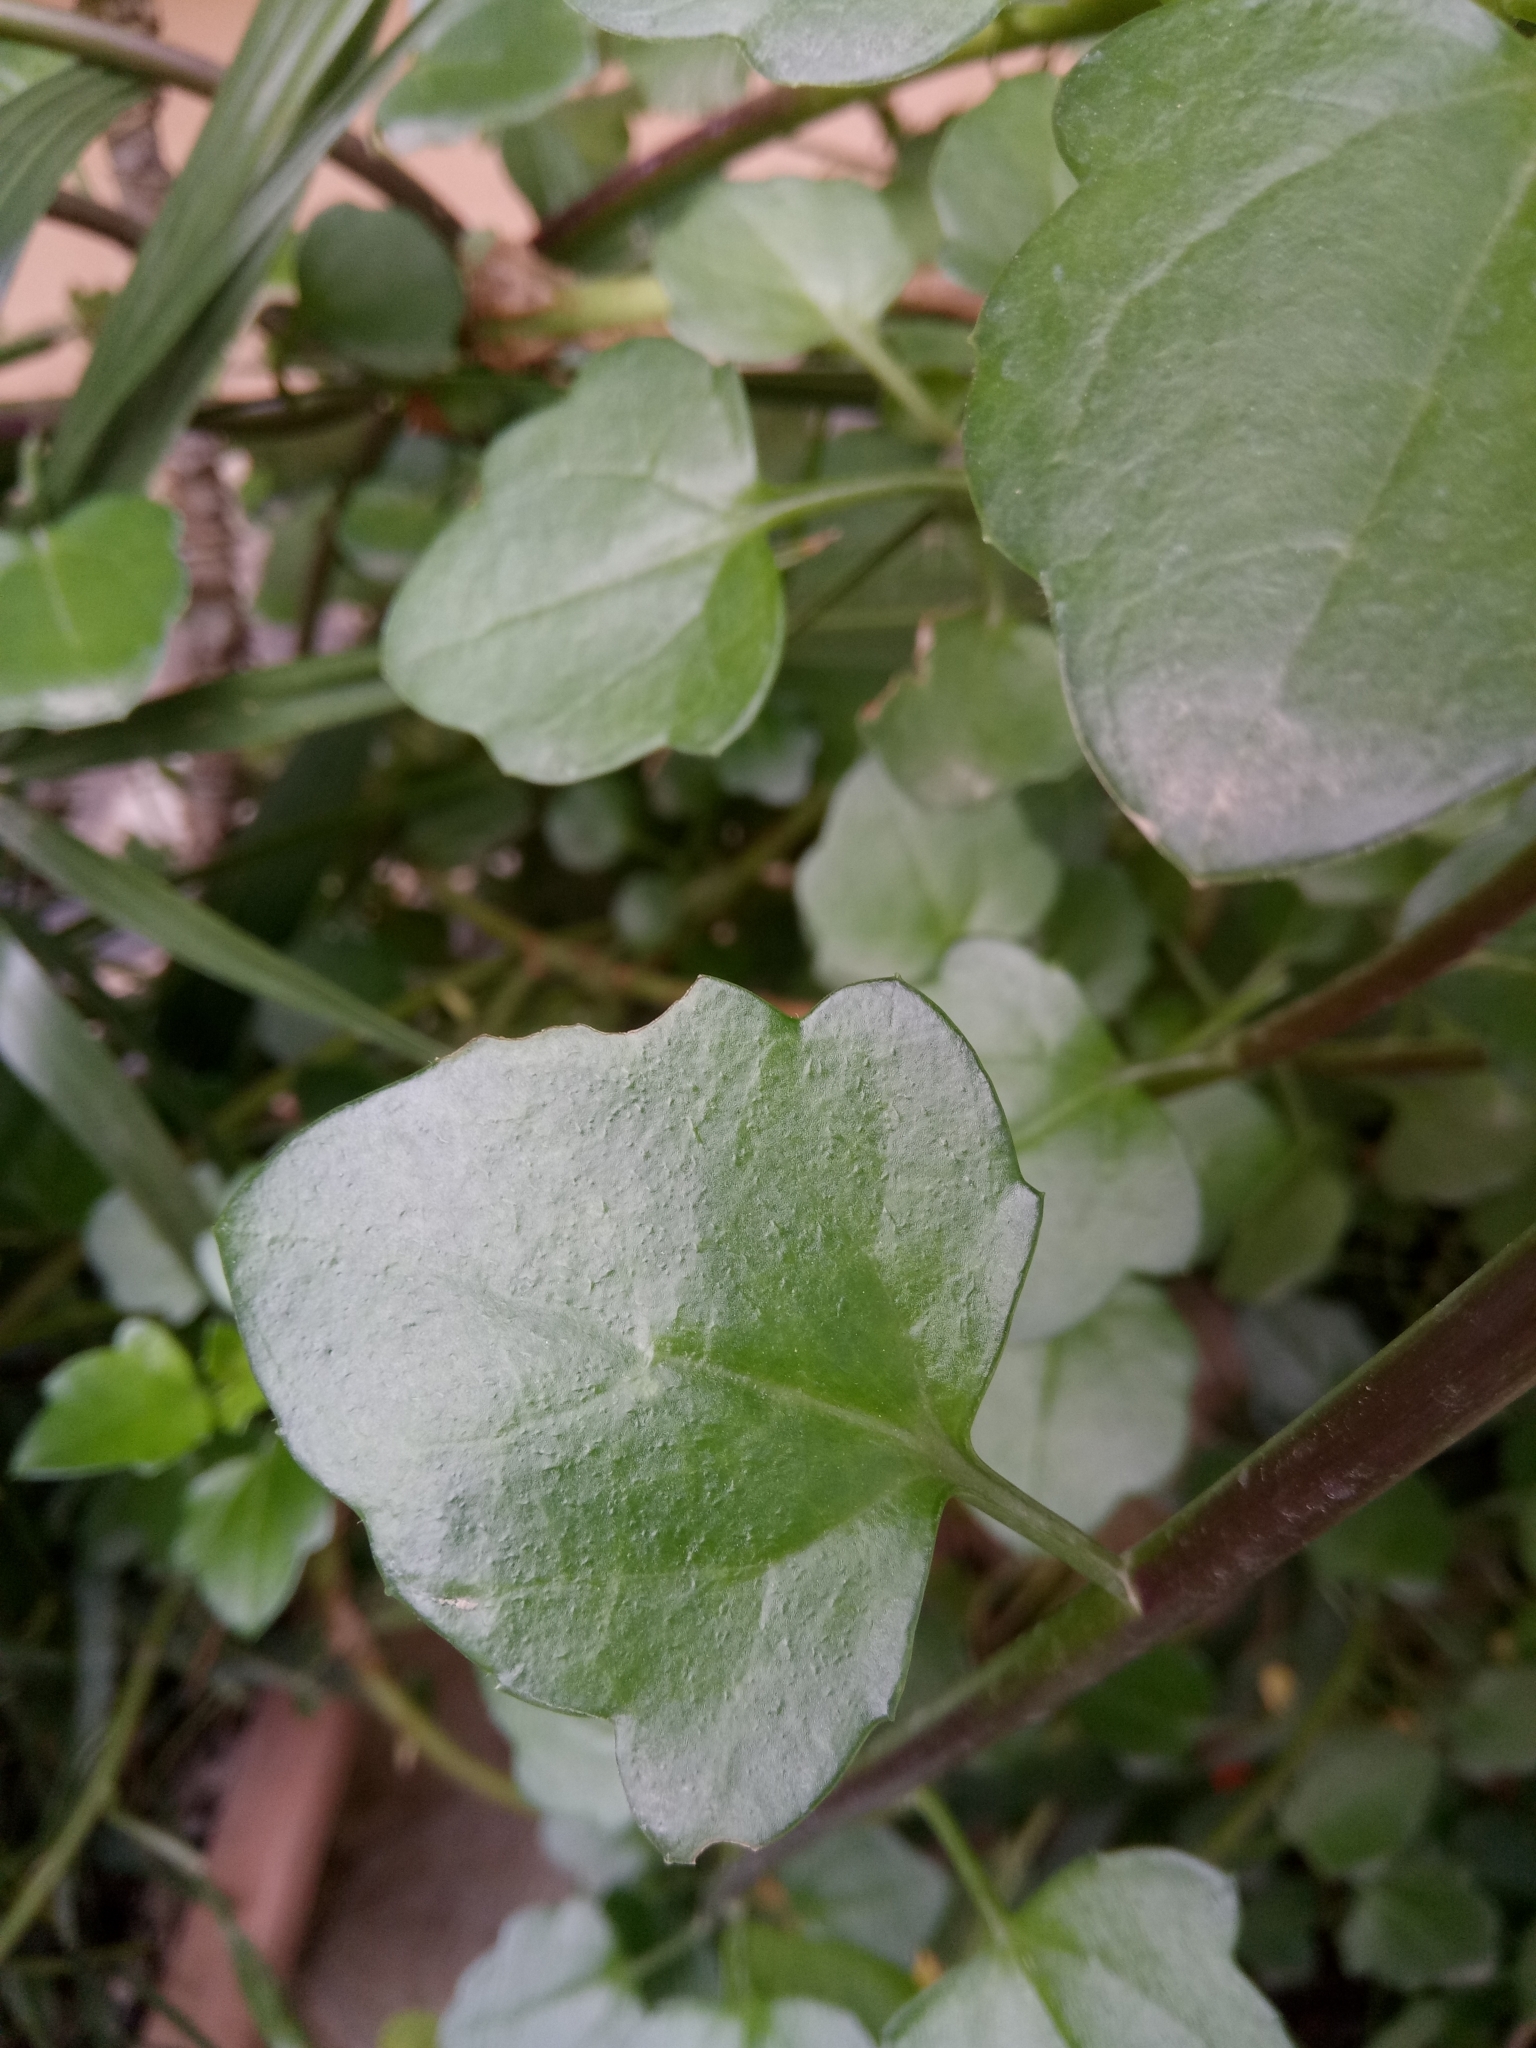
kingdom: Plantae
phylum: Tracheophyta
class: Magnoliopsida
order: Brassicales
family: Brassicaceae
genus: Nasturtium
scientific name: Nasturtium officinale
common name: Watercress
